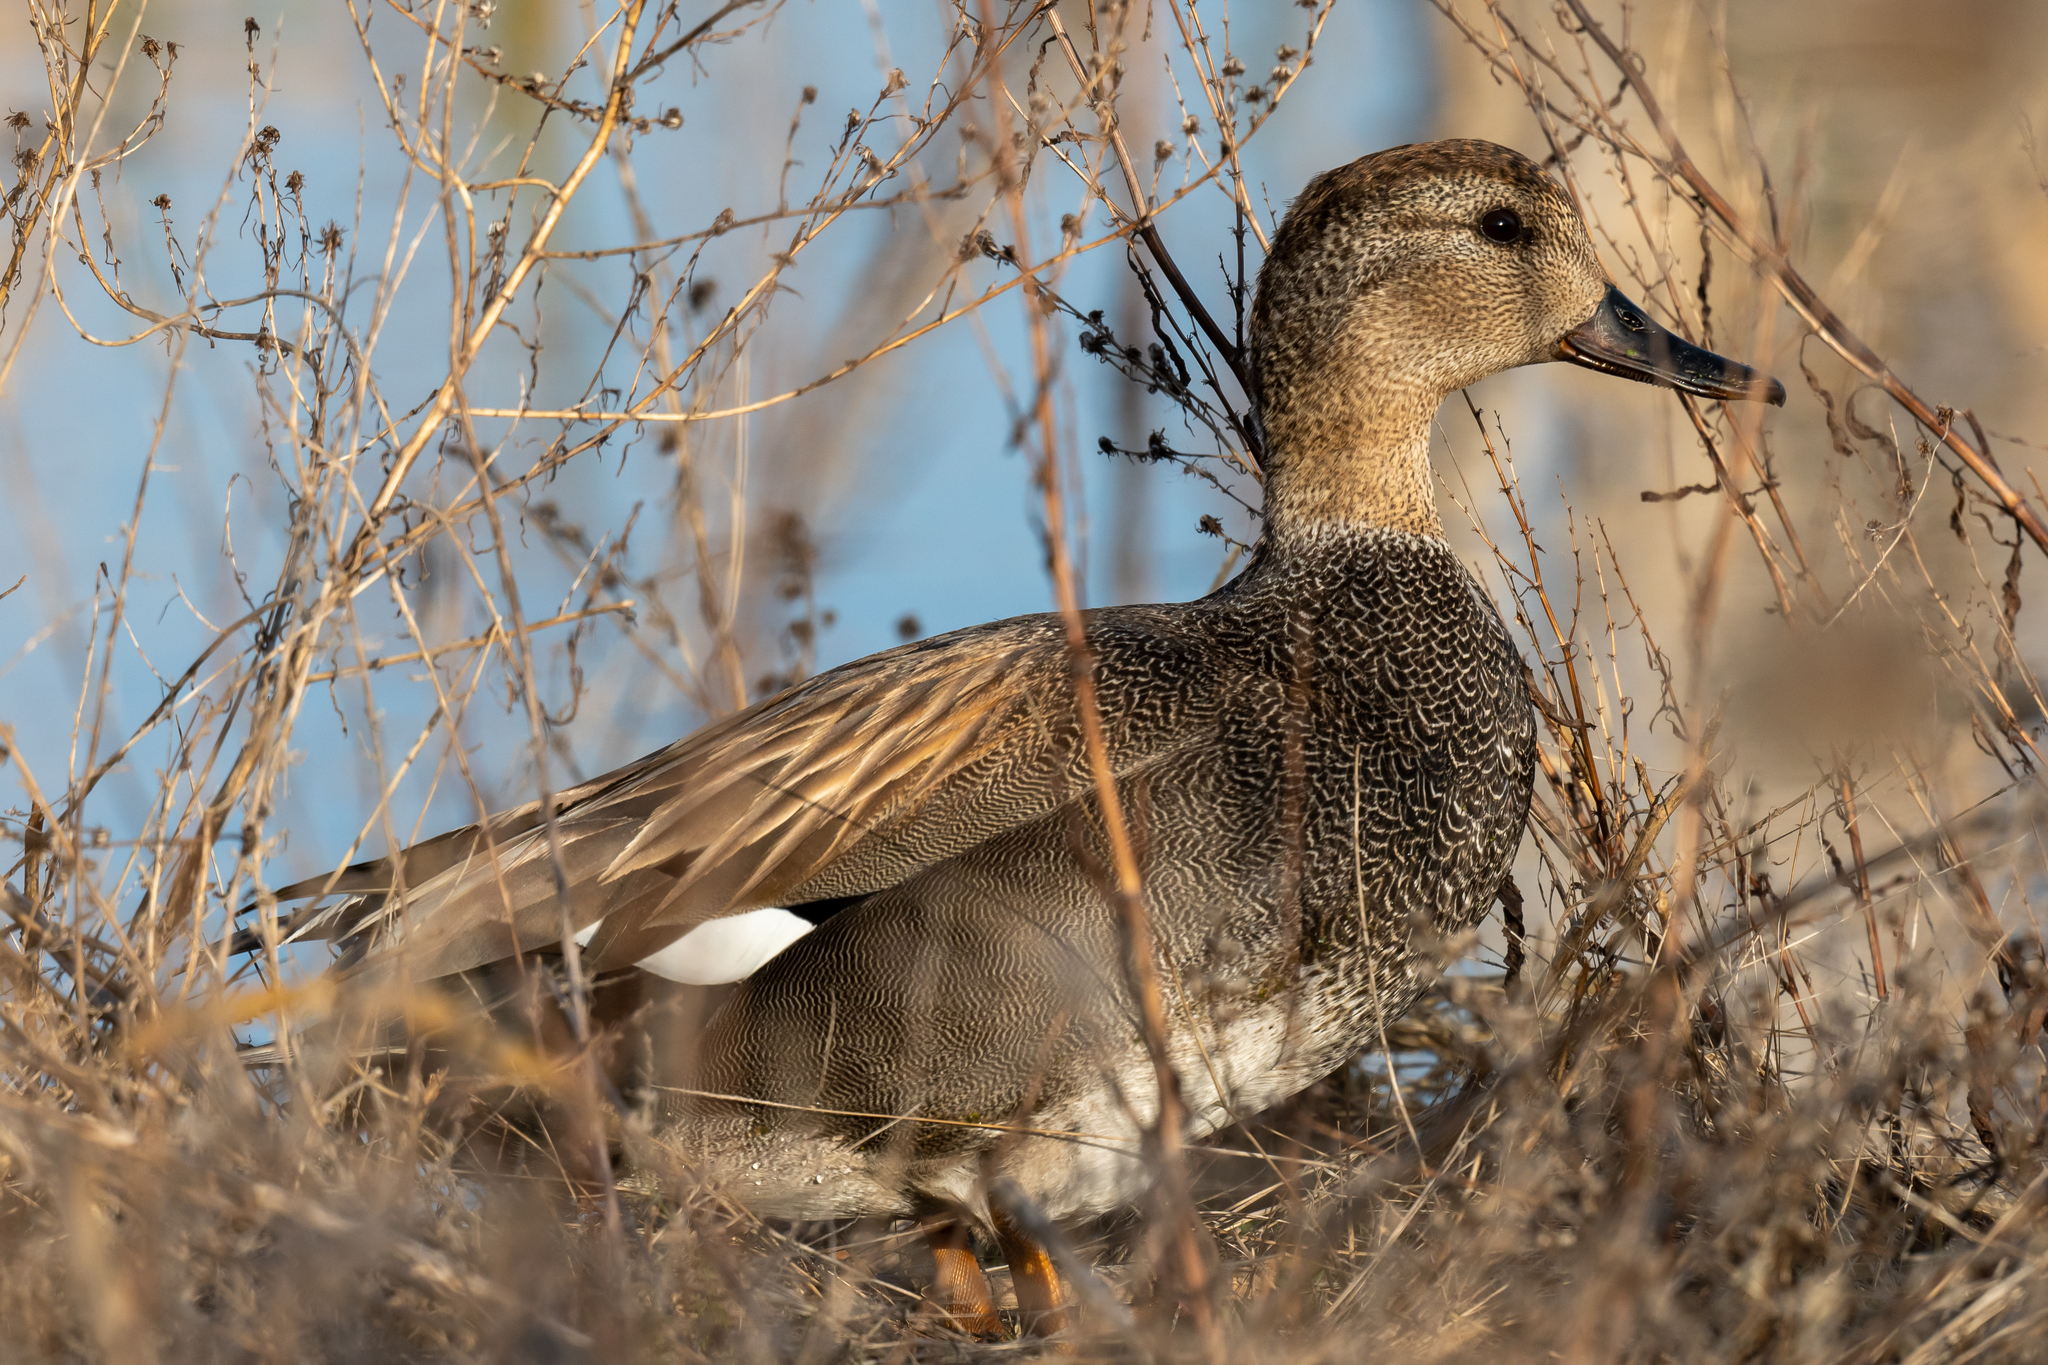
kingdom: Animalia
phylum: Chordata
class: Aves
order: Anseriformes
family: Anatidae
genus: Mareca
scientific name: Mareca strepera
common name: Gadwall
